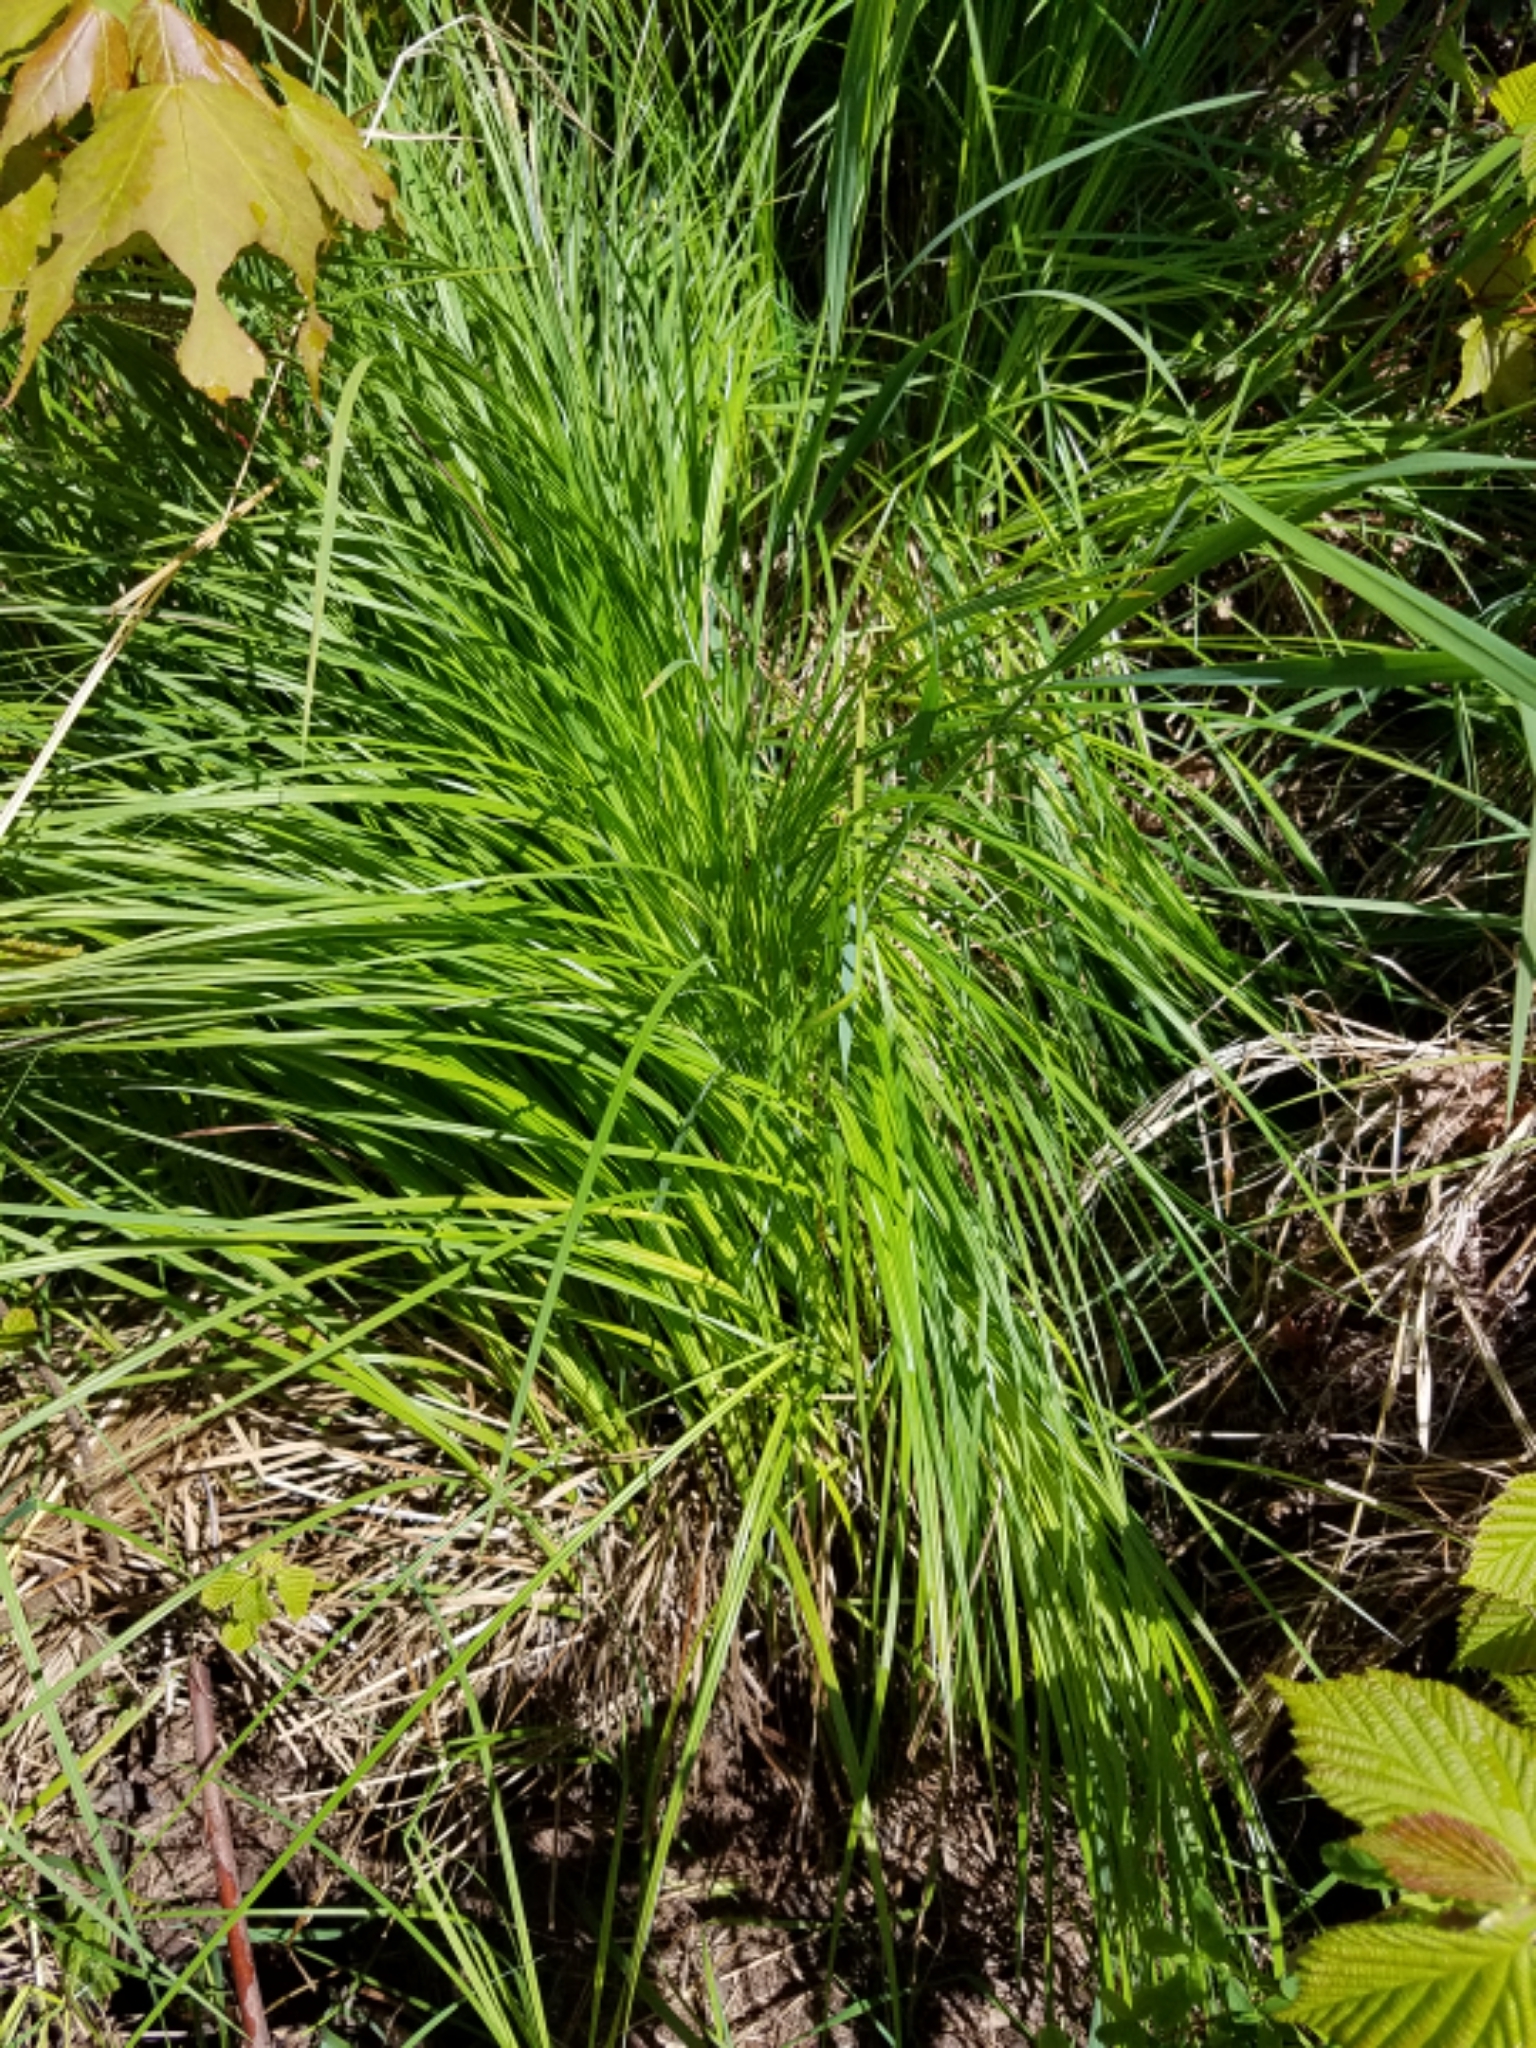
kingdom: Plantae
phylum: Tracheophyta
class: Liliopsida
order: Poales
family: Cyperaceae
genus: Carex
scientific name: Carex stricta
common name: Hummock sedge
